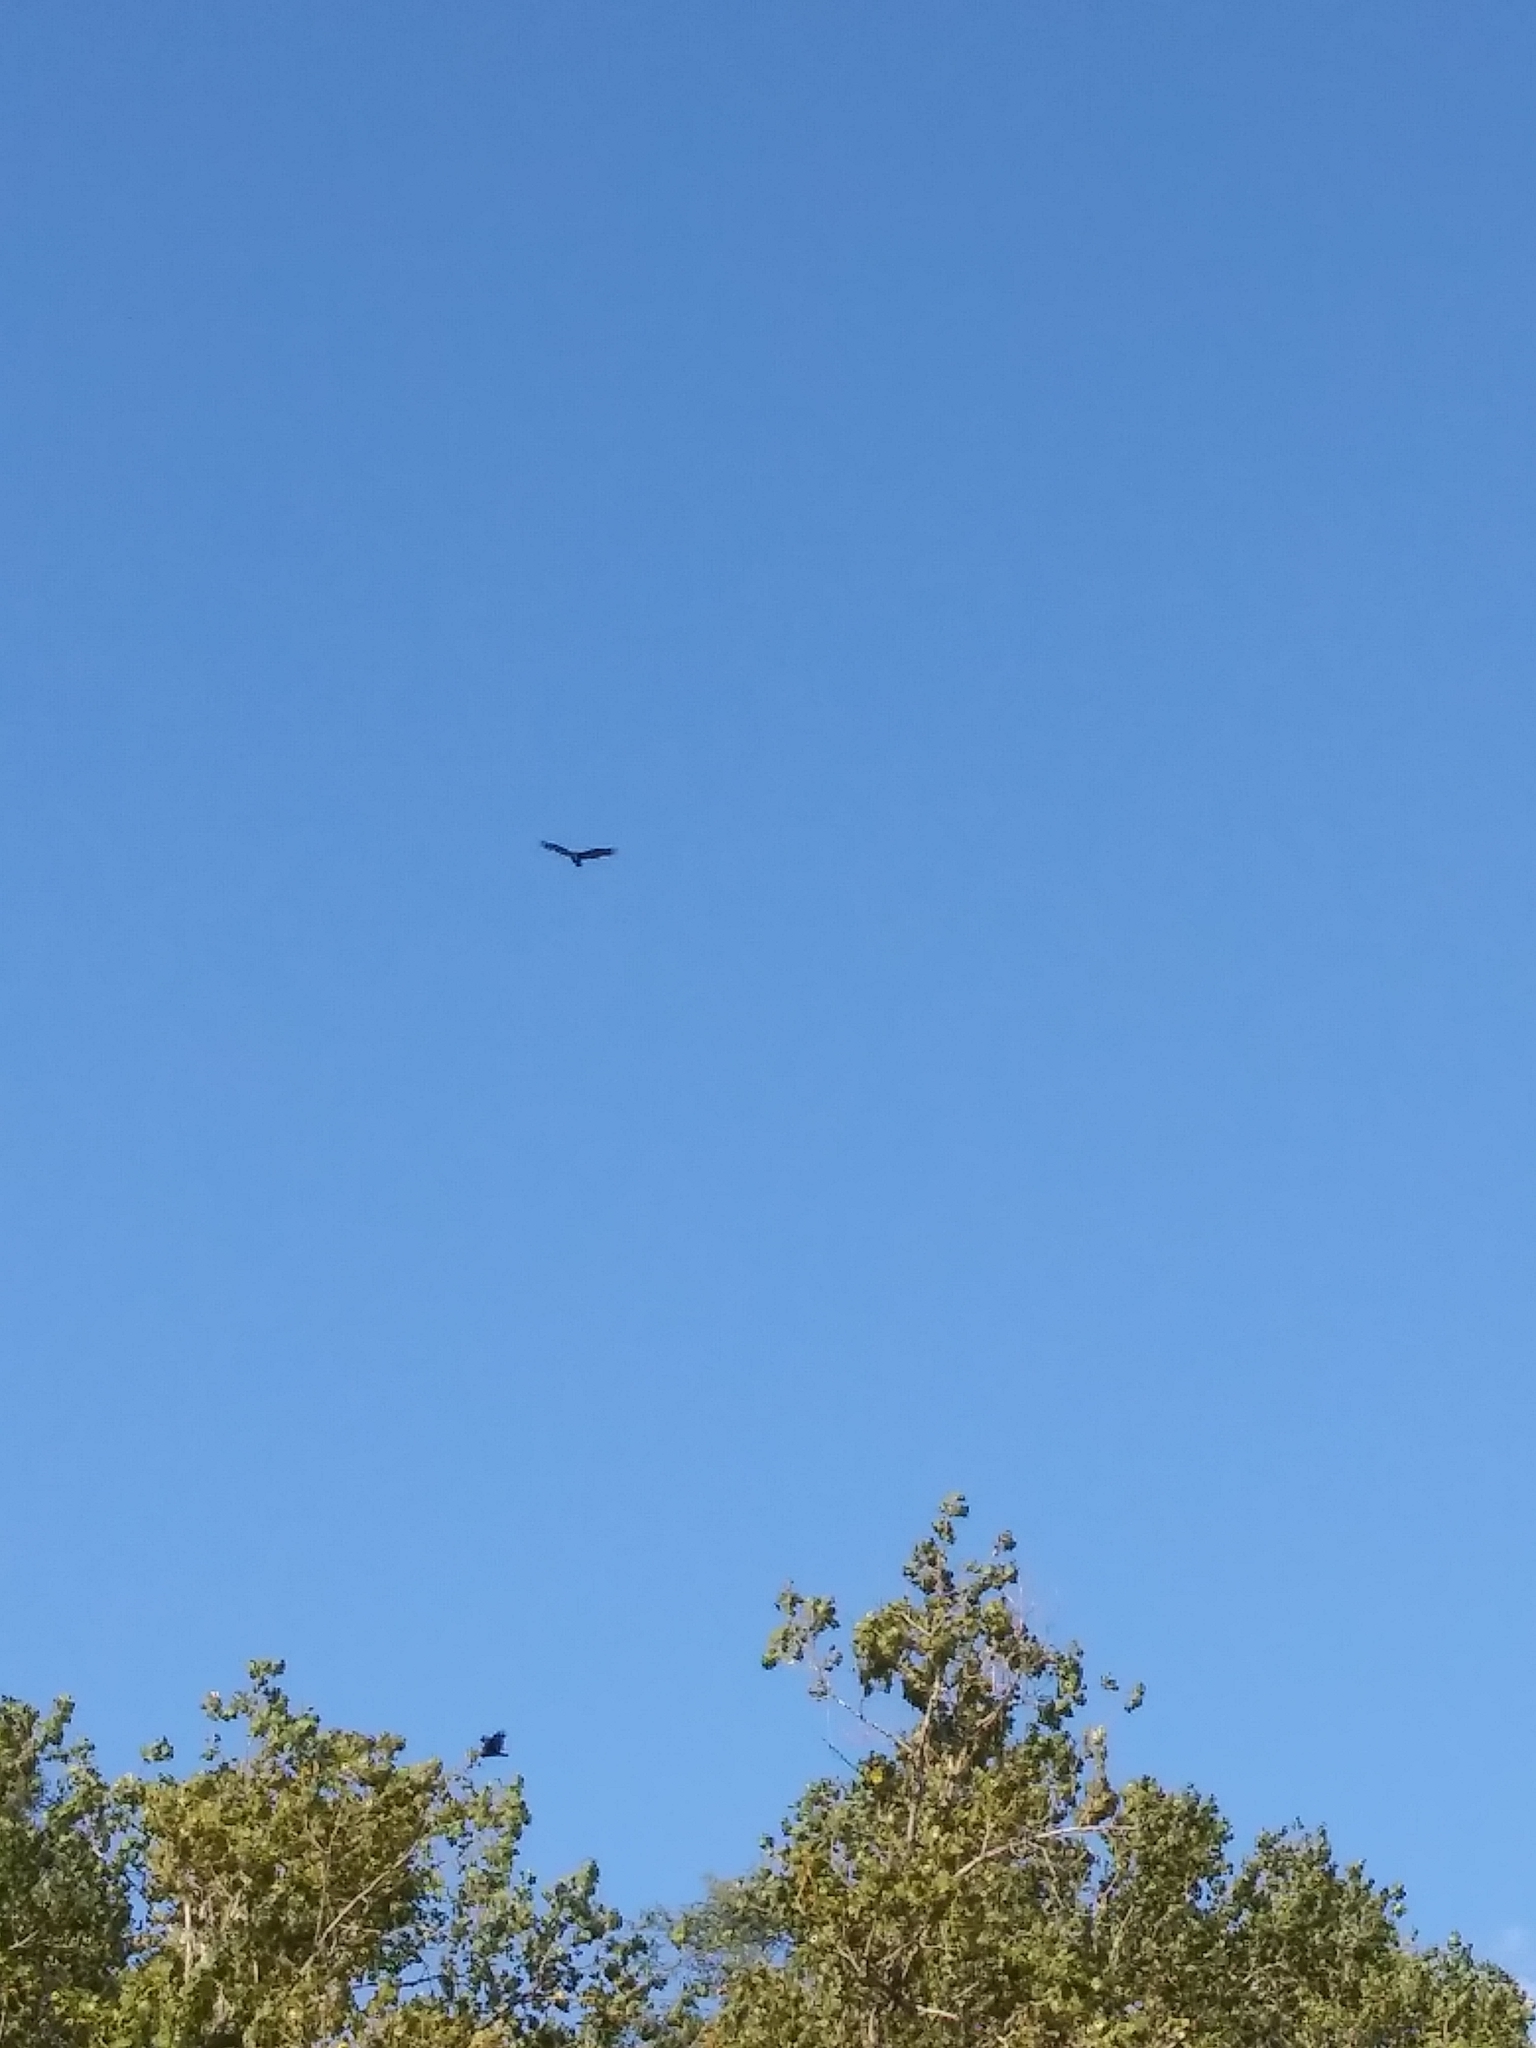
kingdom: Animalia
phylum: Chordata
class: Aves
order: Accipitriformes
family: Cathartidae
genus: Cathartes
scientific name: Cathartes aura
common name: Turkey vulture
